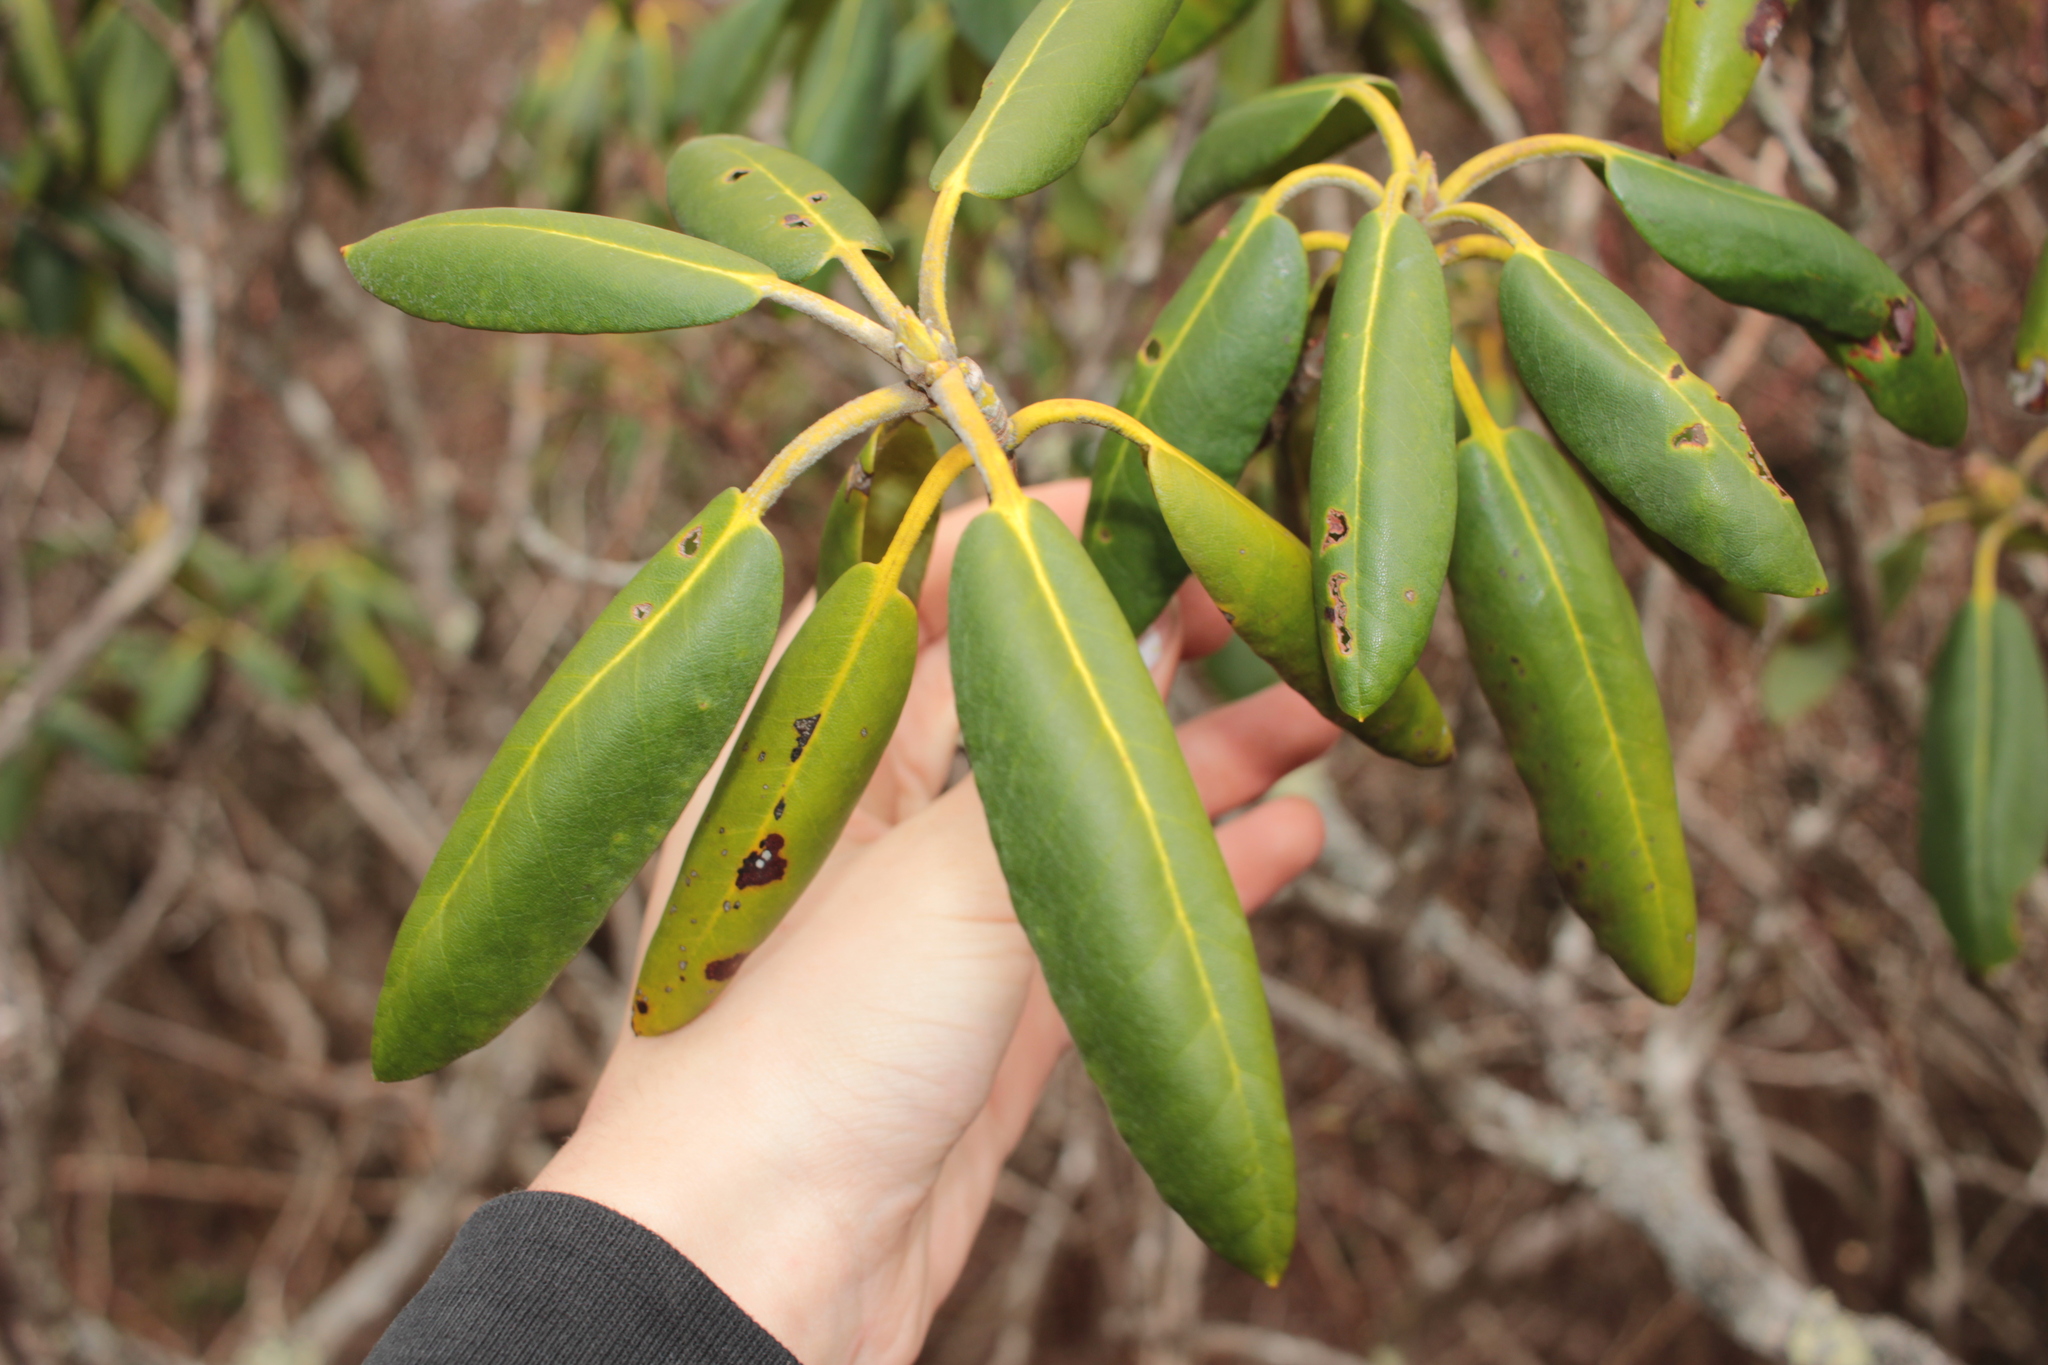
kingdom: Plantae
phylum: Tracheophyta
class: Magnoliopsida
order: Ericales
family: Ericaceae
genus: Rhododendron
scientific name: Rhododendron catawbiense
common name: Catawba rhododendron
